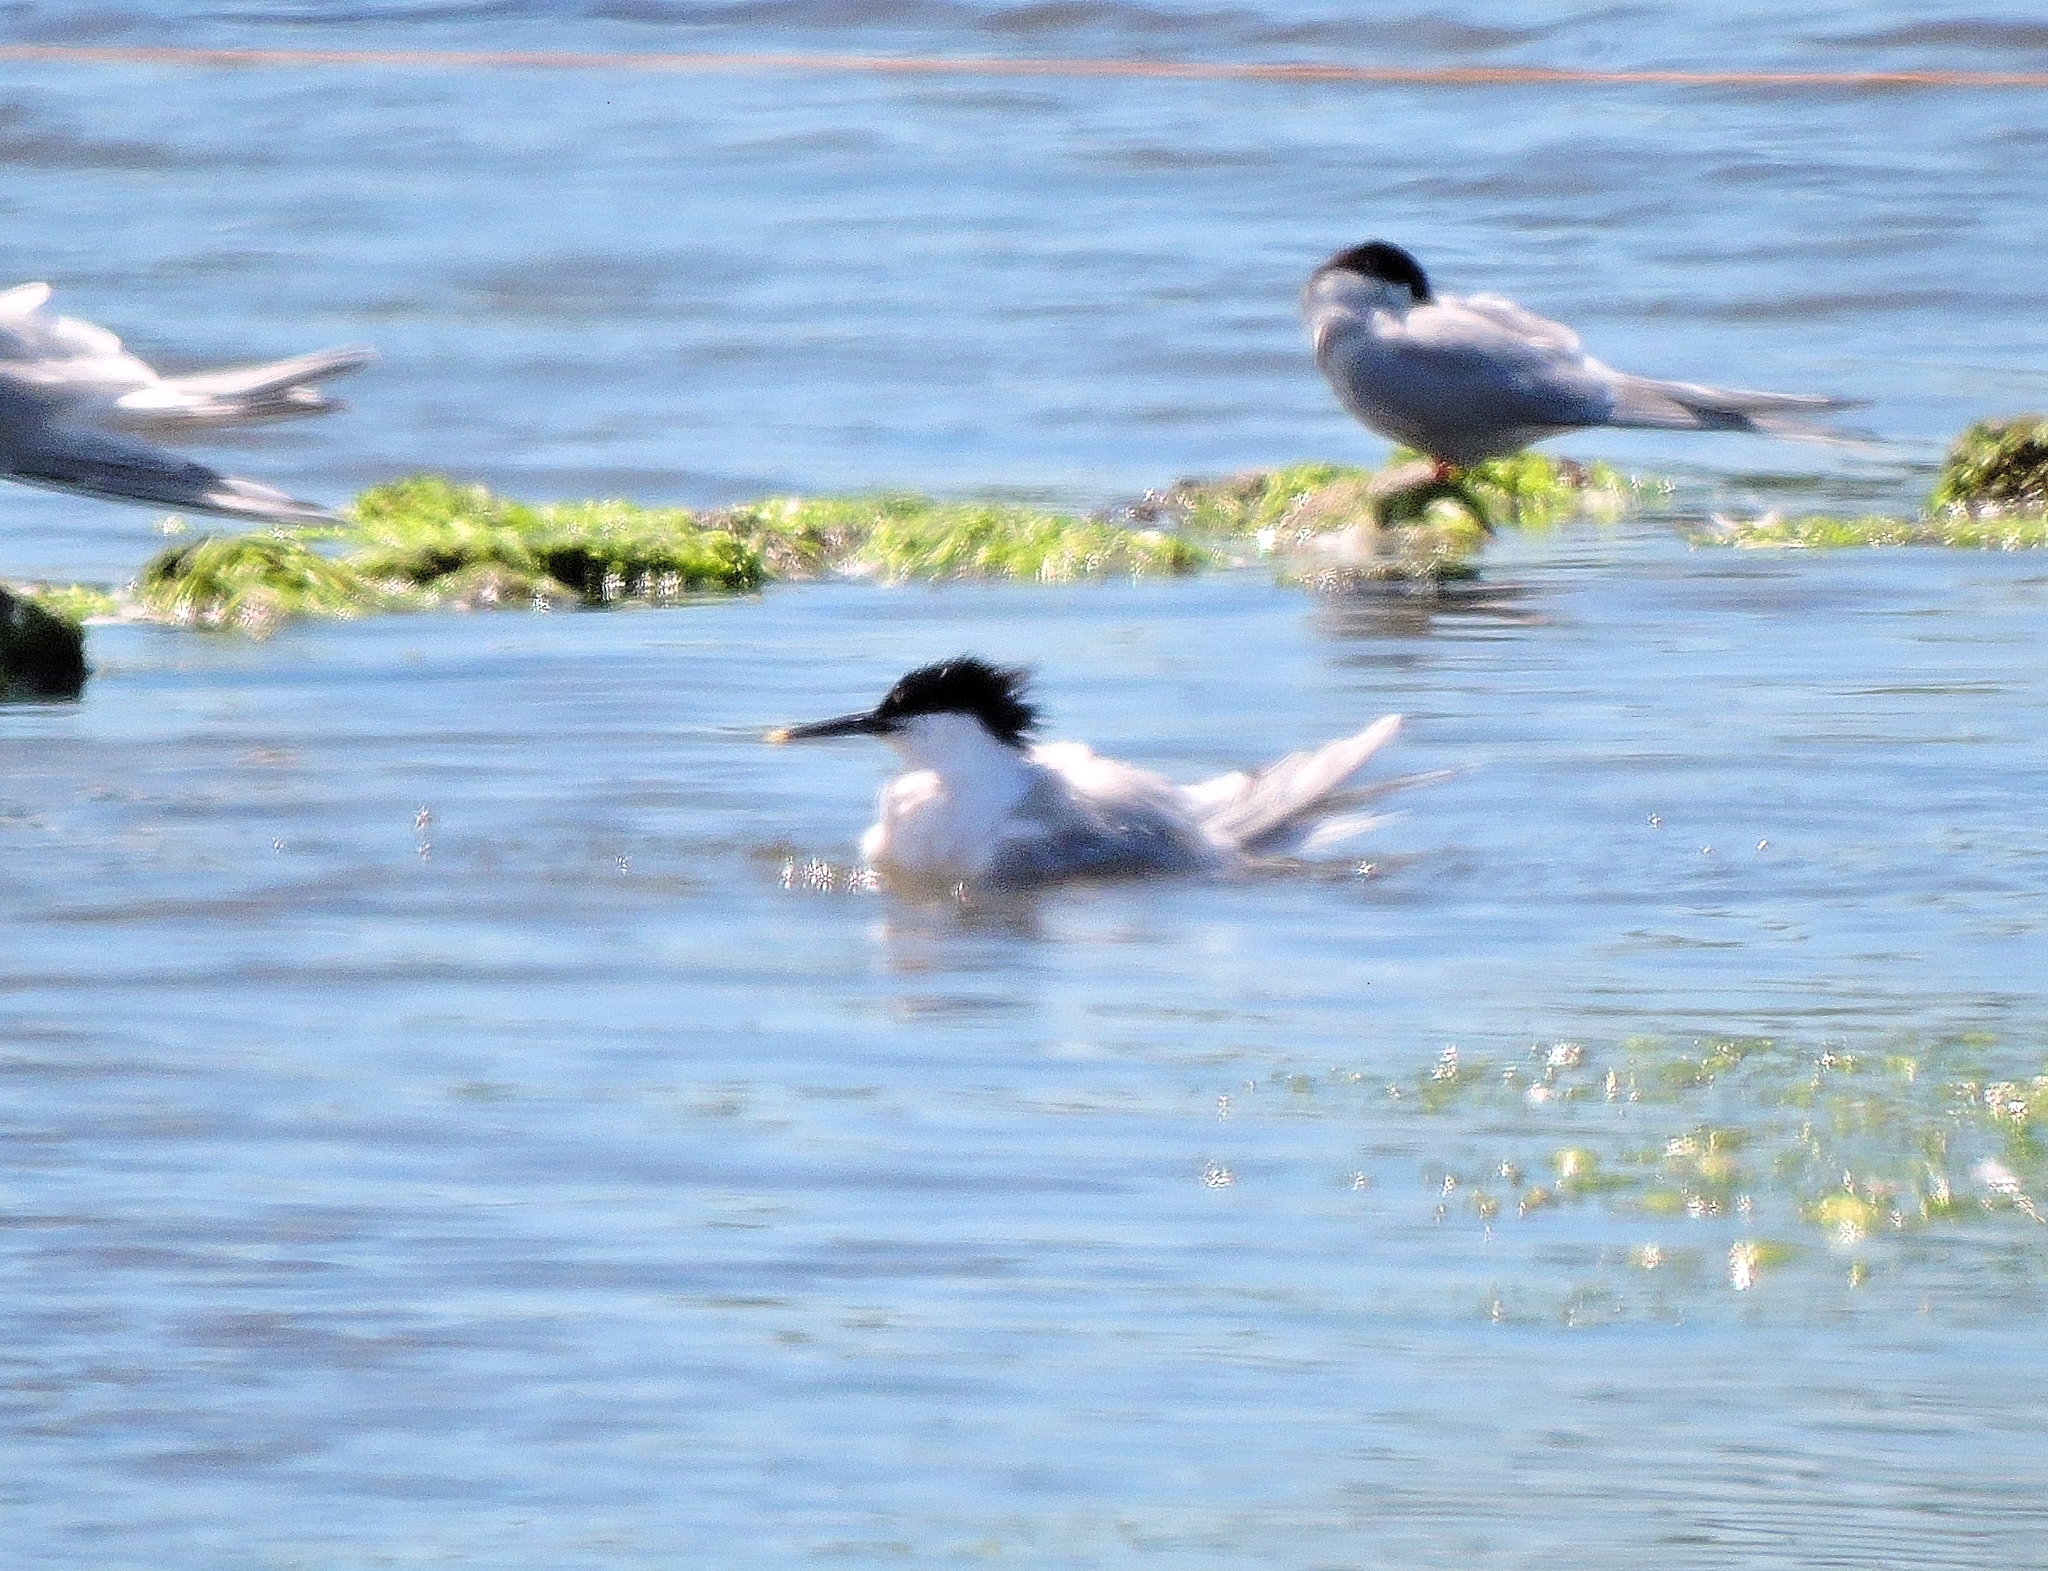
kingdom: Animalia
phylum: Chordata
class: Aves
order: Charadriiformes
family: Laridae
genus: Thalasseus
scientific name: Thalasseus sandvicensis
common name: Sandwich tern
